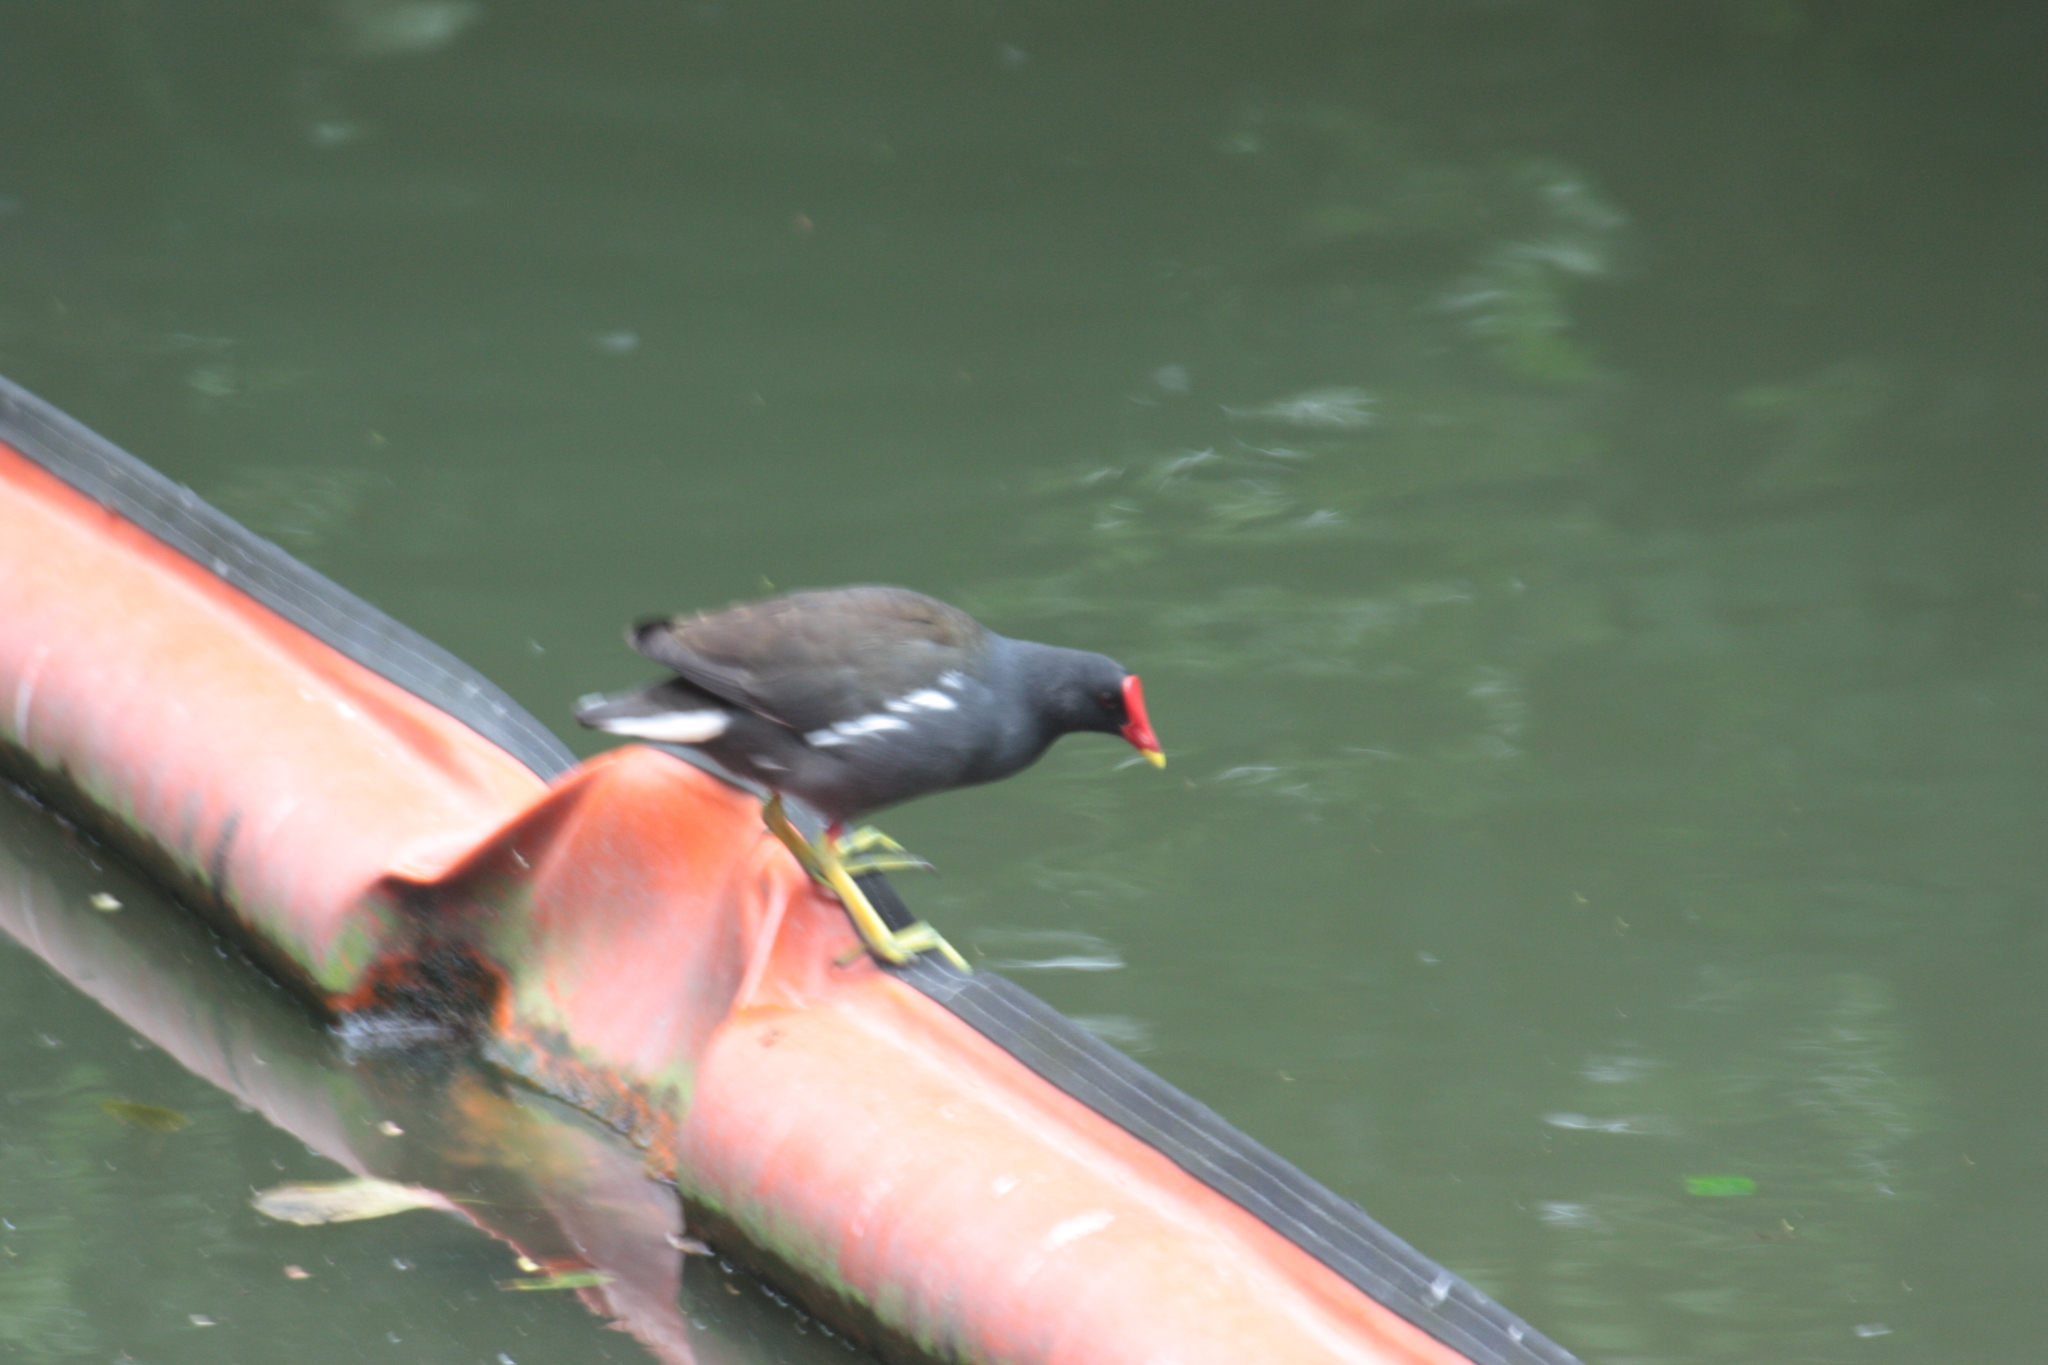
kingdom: Animalia
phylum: Chordata
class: Aves
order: Gruiformes
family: Rallidae
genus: Gallinula
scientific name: Gallinula chloropus
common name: Common moorhen
